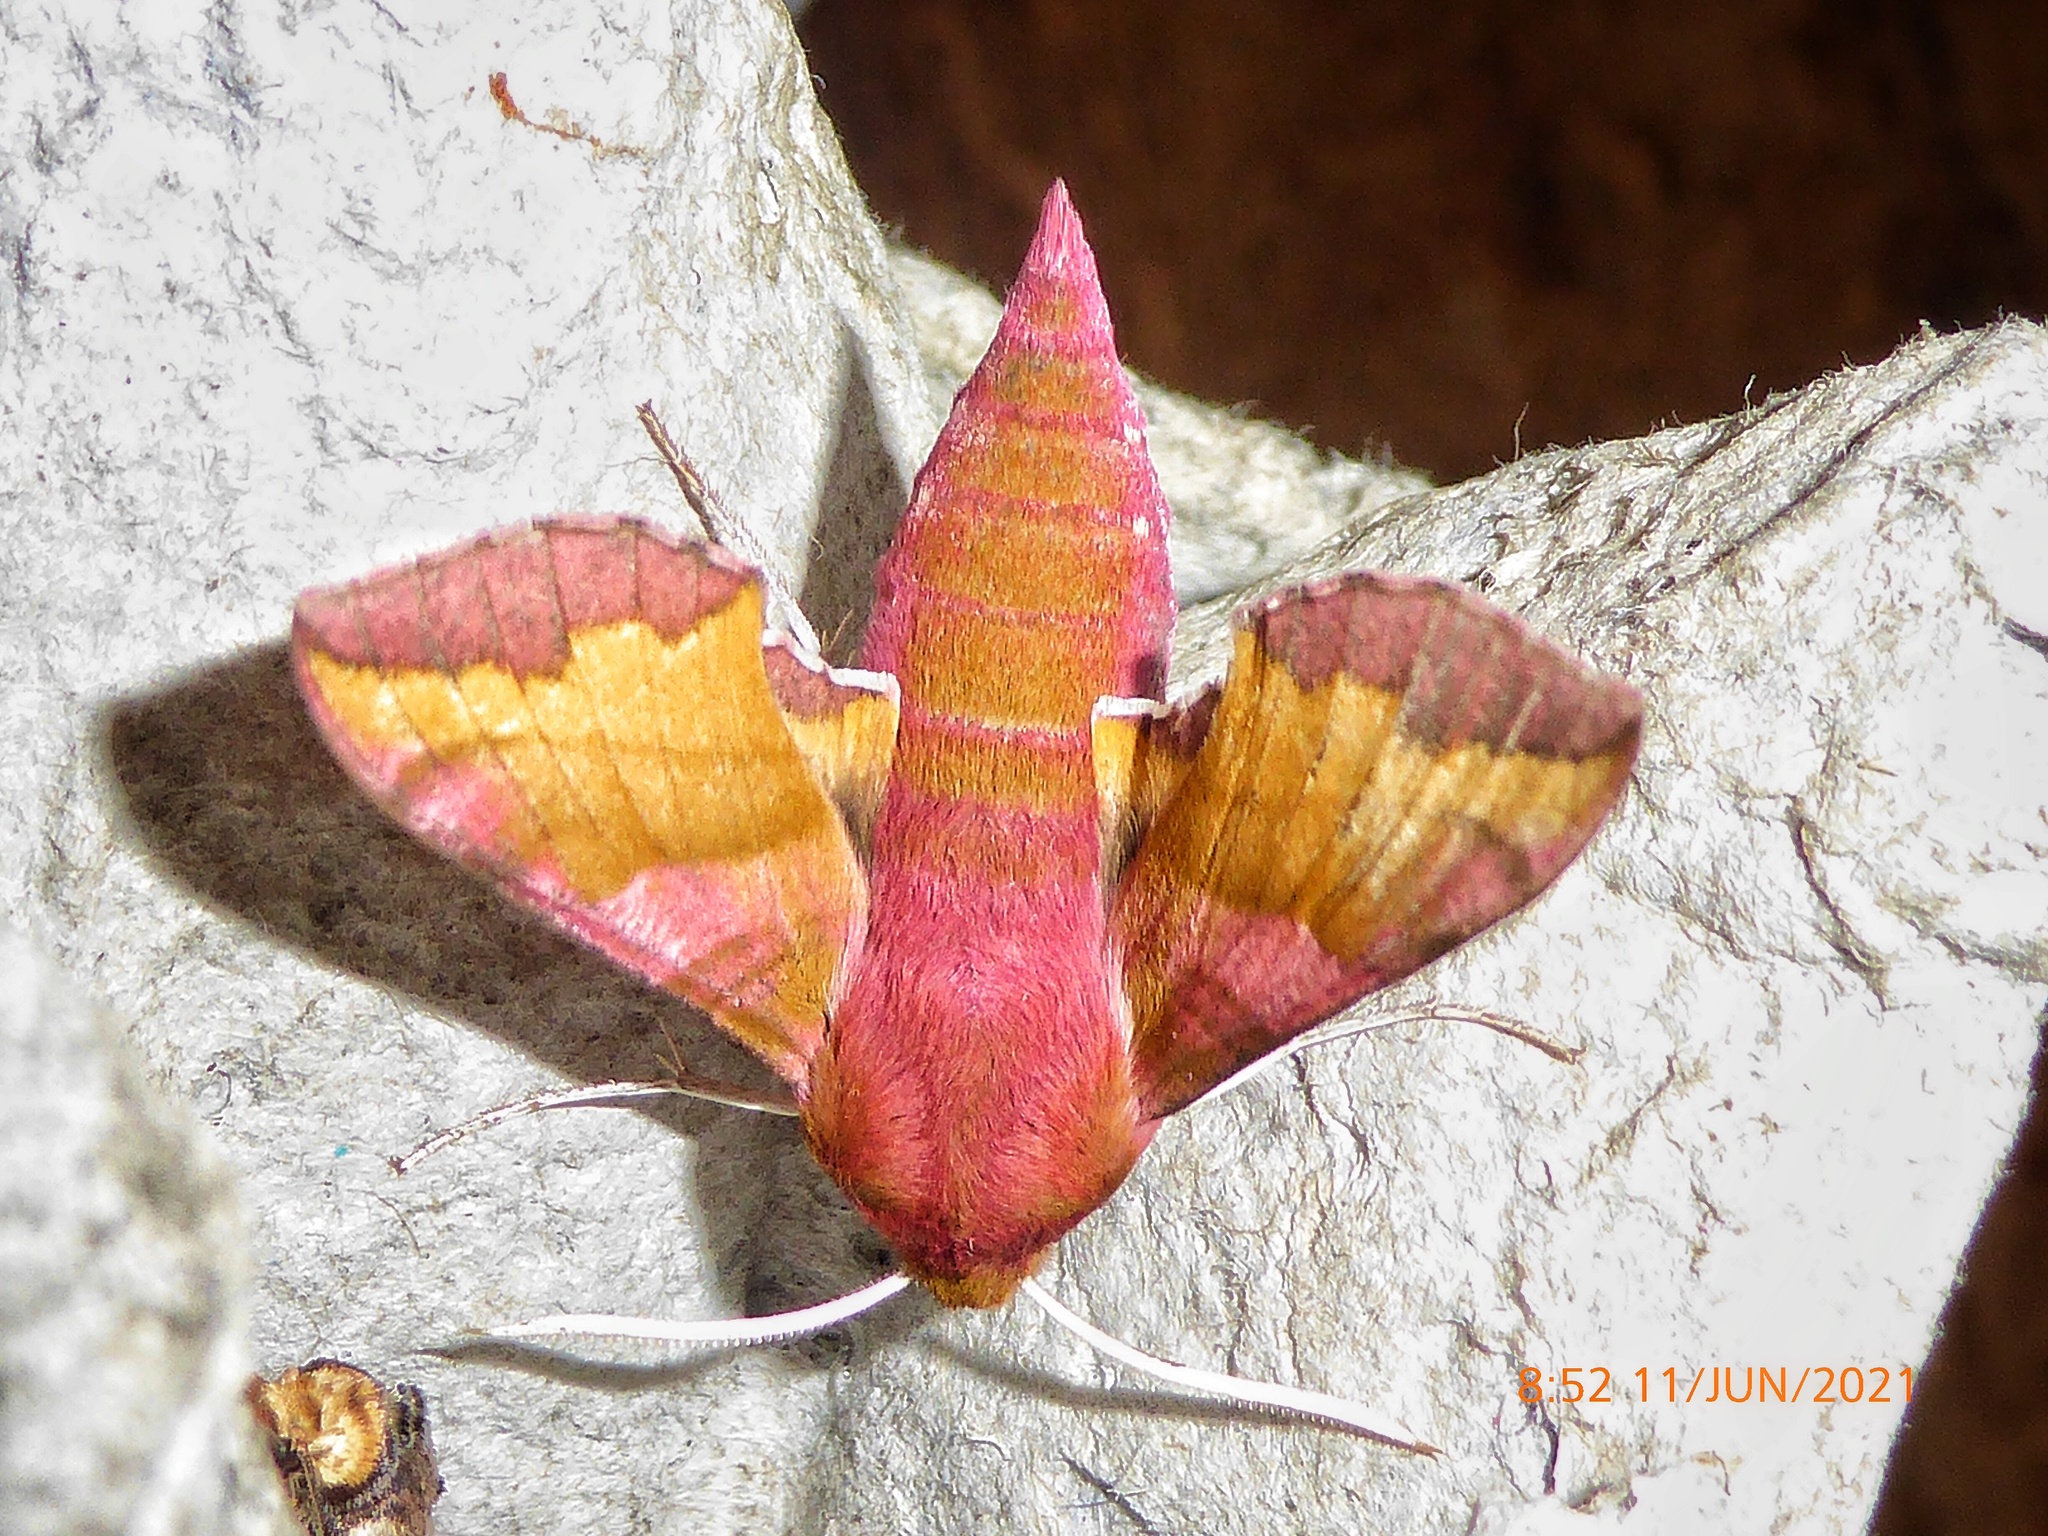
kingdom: Animalia
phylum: Arthropoda
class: Insecta
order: Lepidoptera
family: Sphingidae
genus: Deilephila
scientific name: Deilephila porcellus
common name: Small elephant hawk-moth
